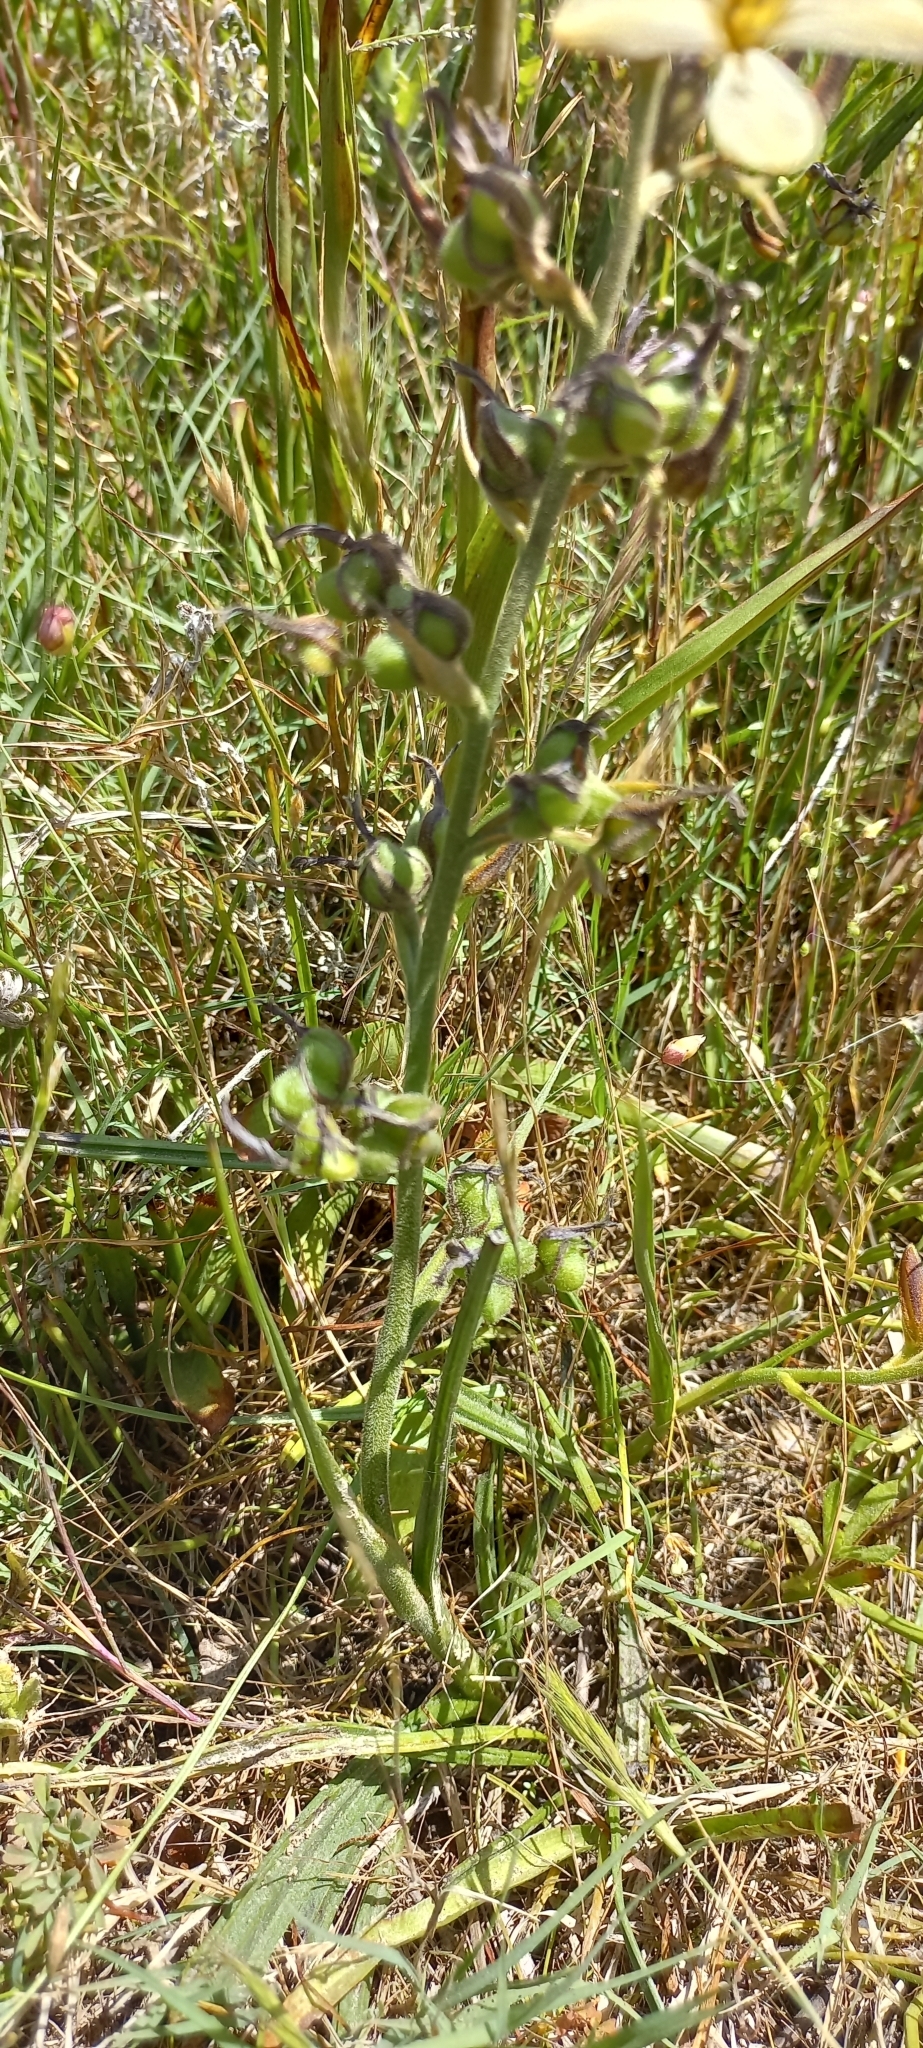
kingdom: Plantae
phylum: Tracheophyta
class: Liliopsida
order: Commelinales
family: Haemodoraceae
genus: Wachendorfia
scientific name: Wachendorfia brachyandra
